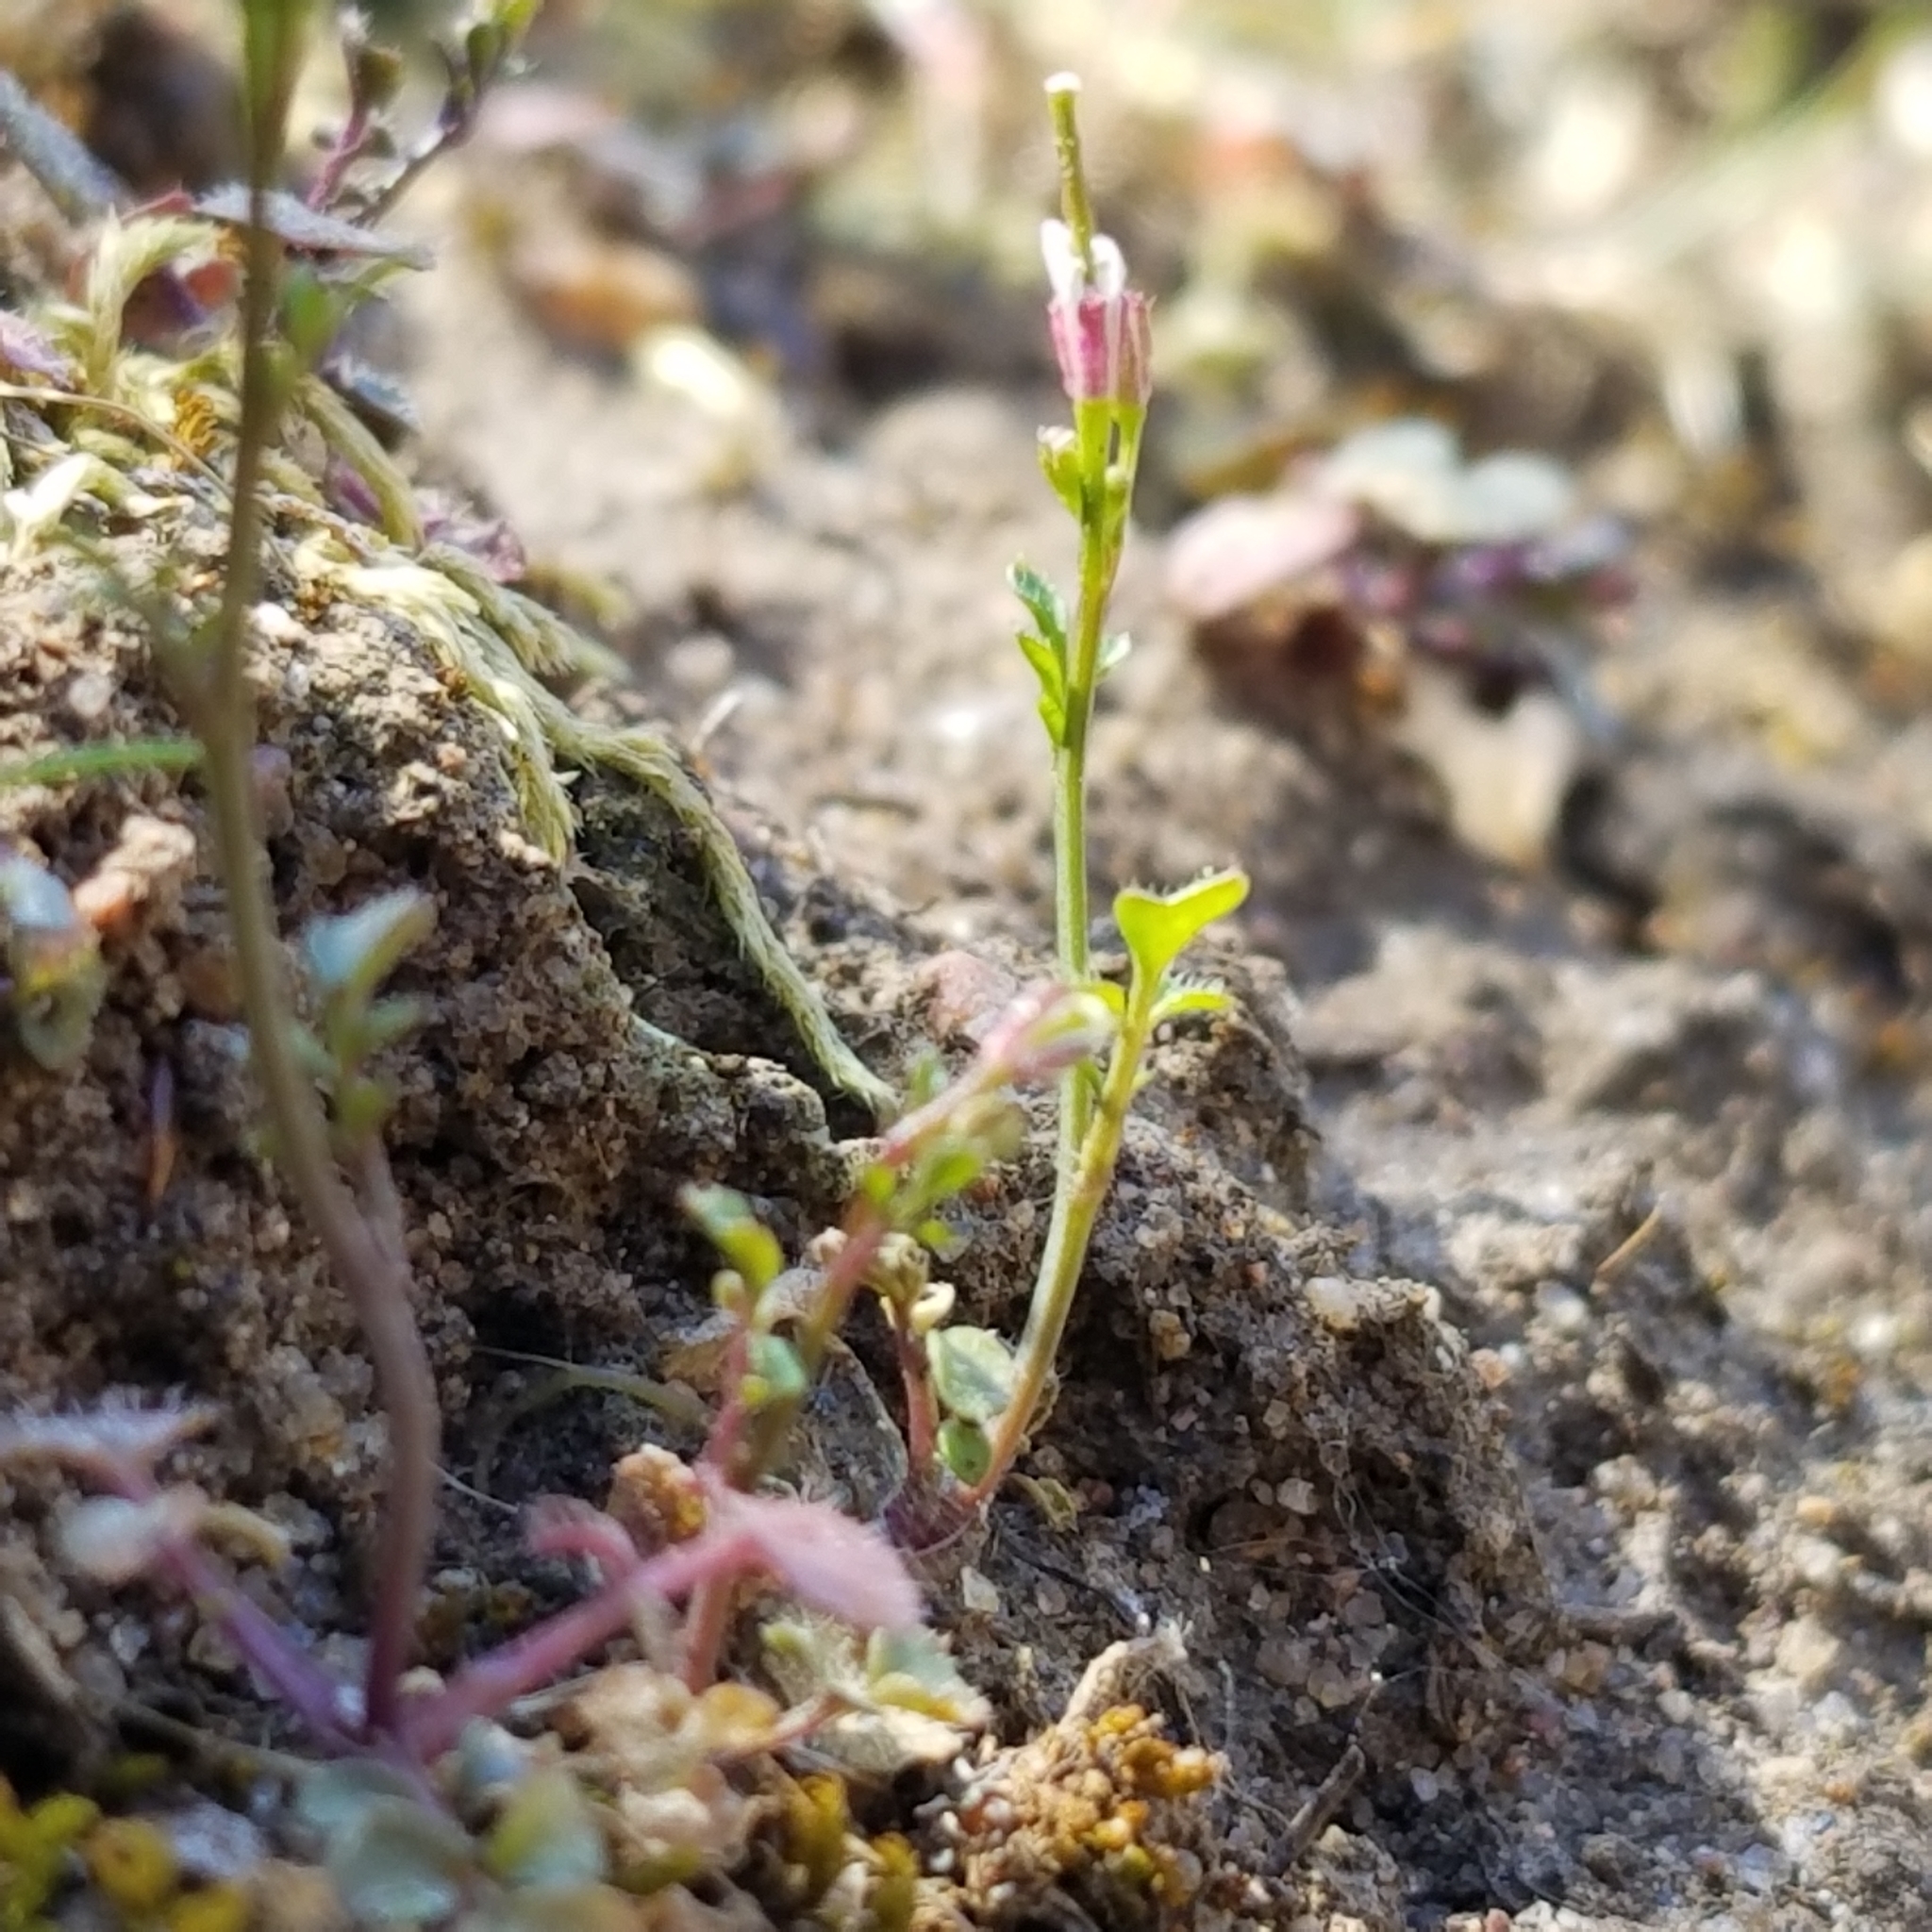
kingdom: Plantae
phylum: Tracheophyta
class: Magnoliopsida
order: Brassicales
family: Brassicaceae
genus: Cardamine
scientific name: Cardamine hirsuta
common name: Hairy bittercress
